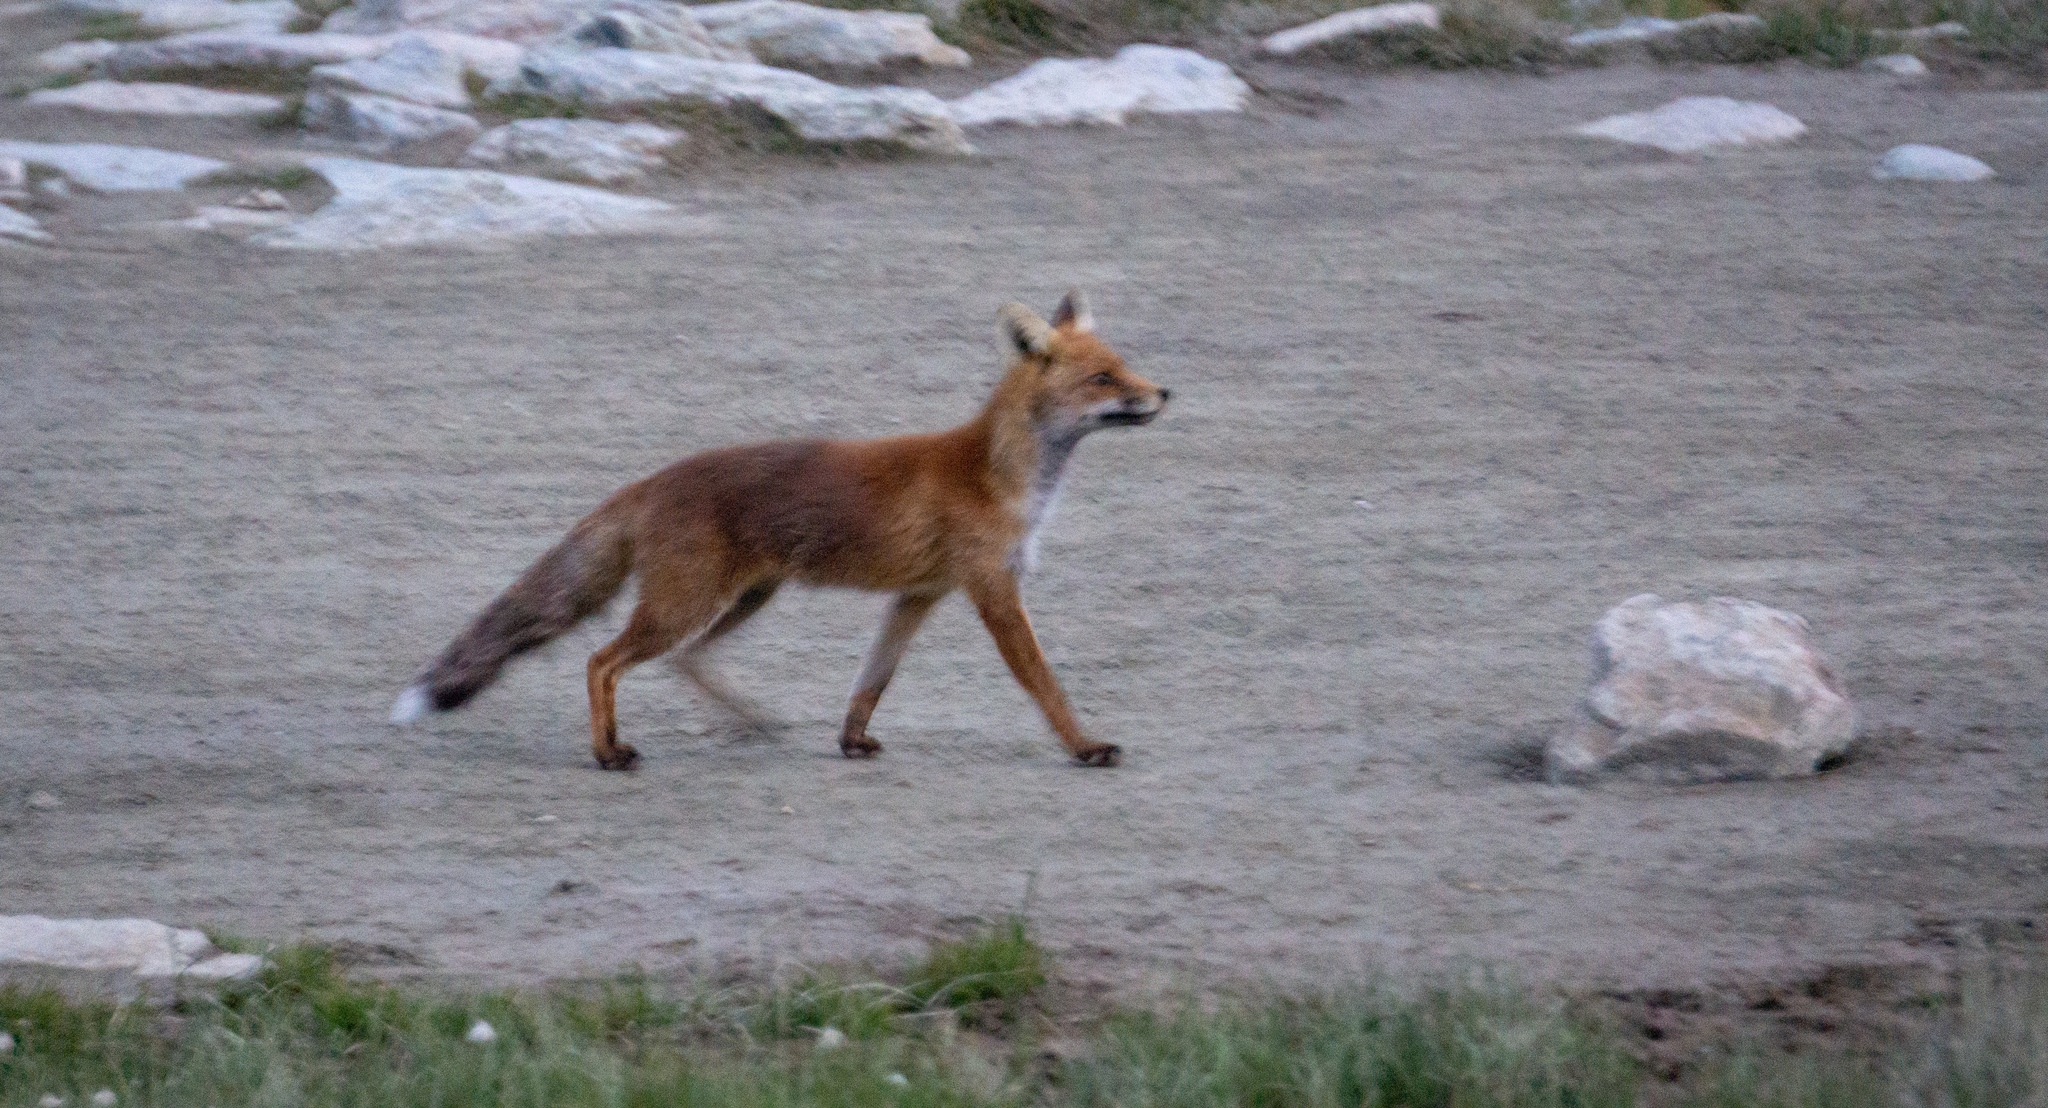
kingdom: Animalia
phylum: Chordata
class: Mammalia
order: Carnivora
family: Canidae
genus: Vulpes
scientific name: Vulpes vulpes
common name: Red fox
